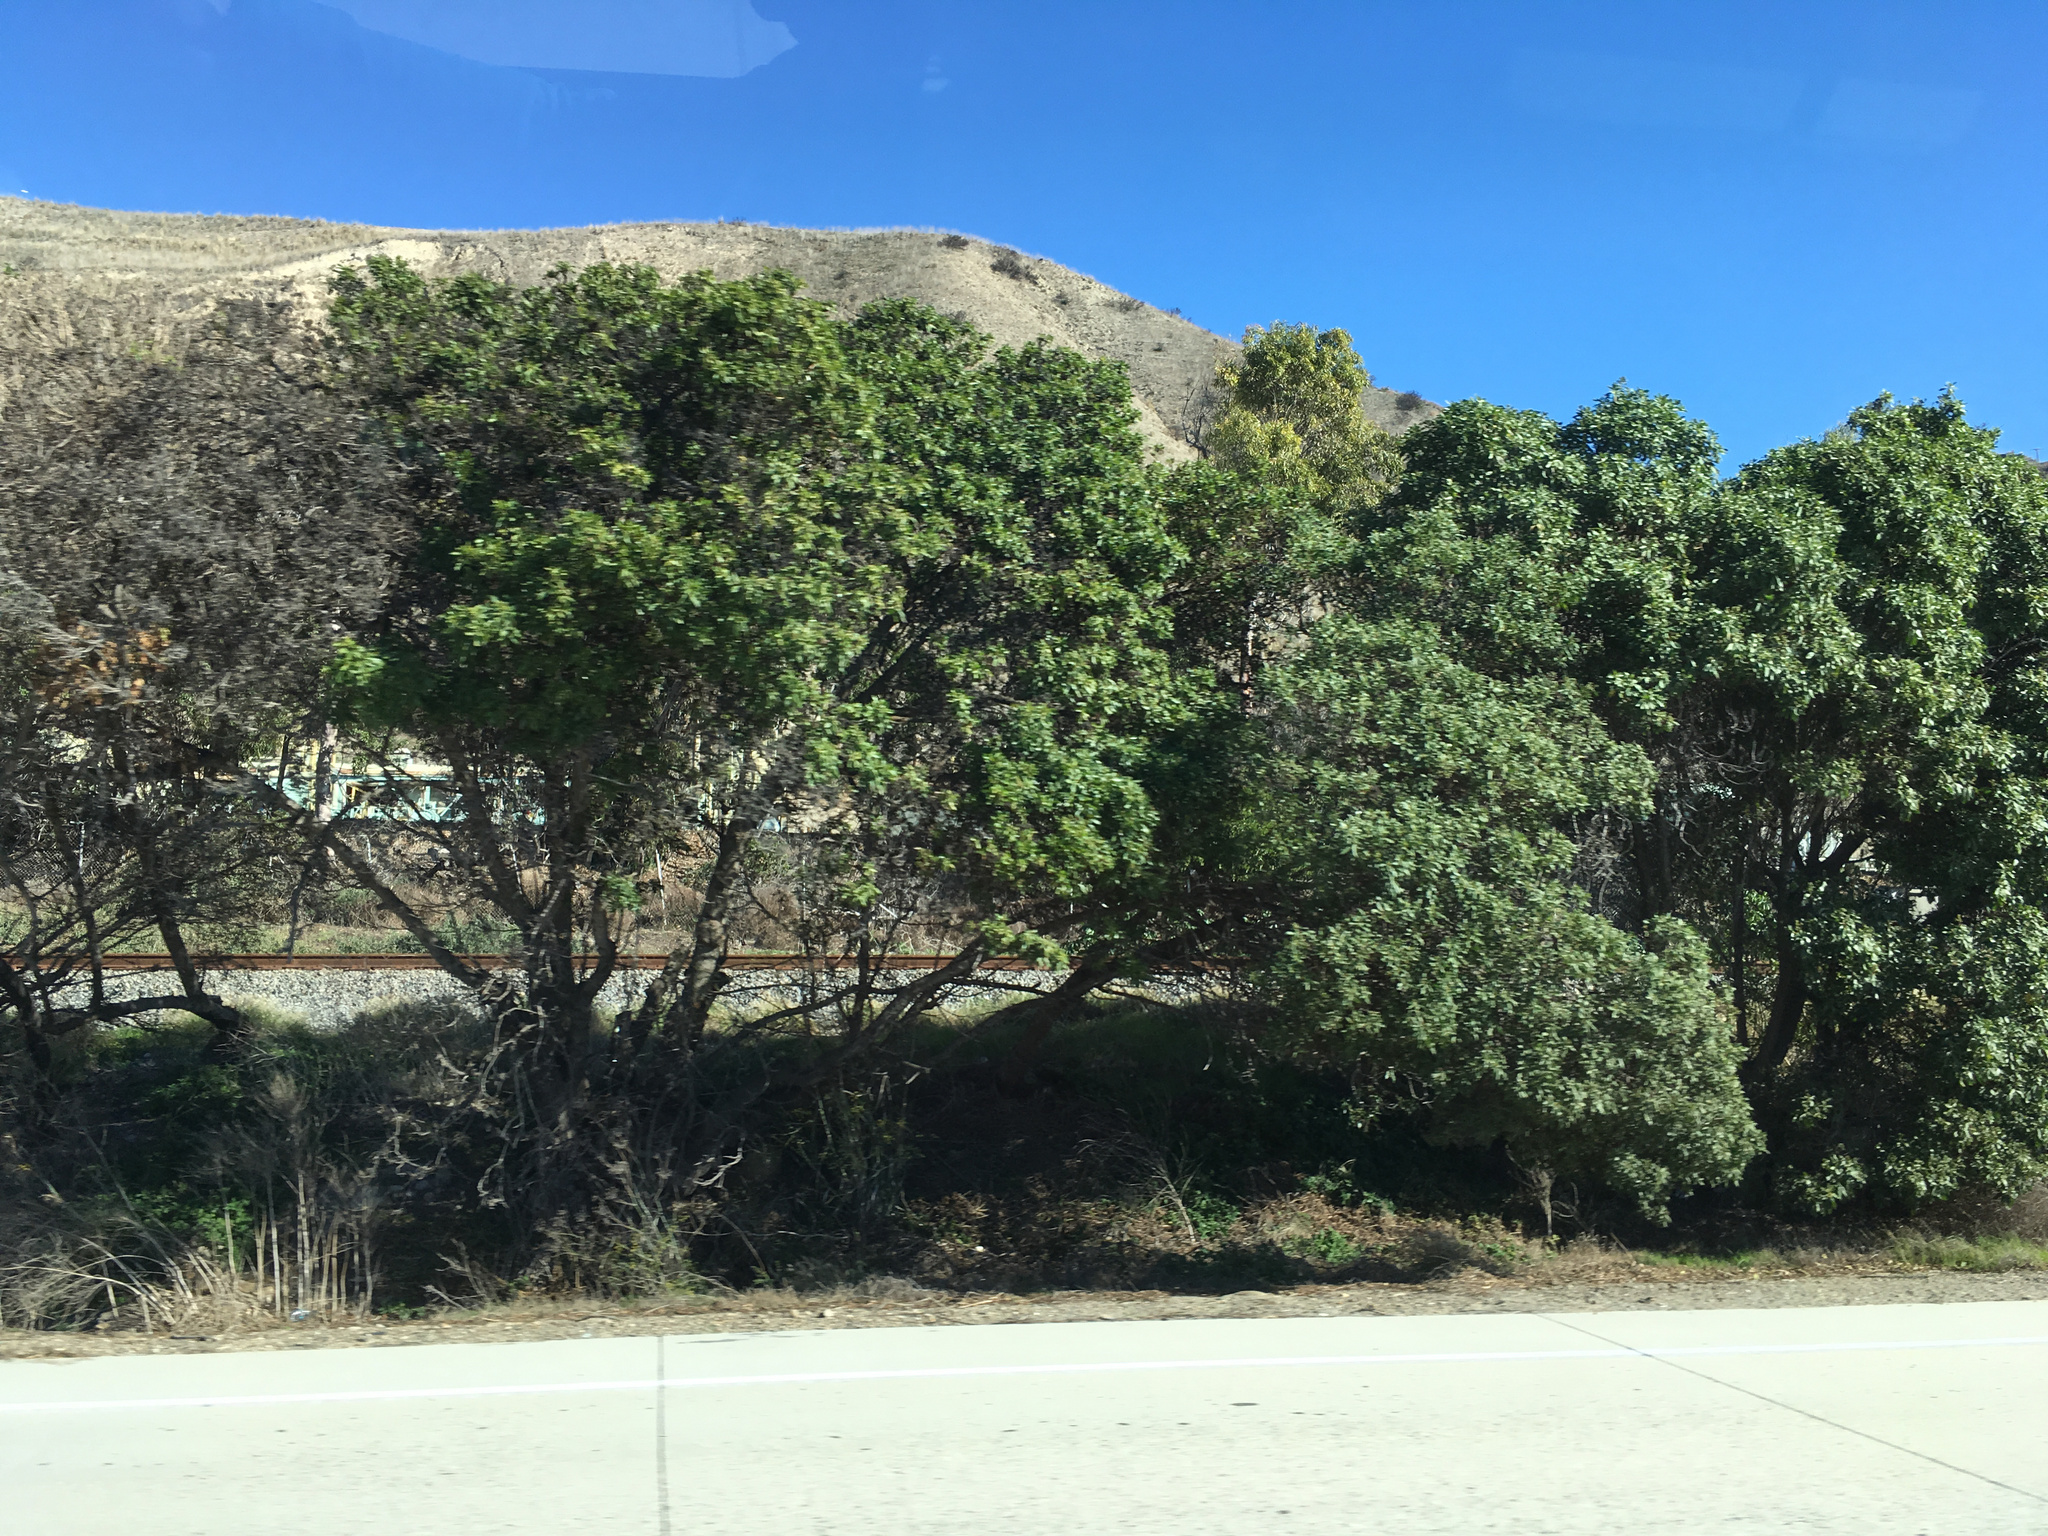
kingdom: Plantae
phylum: Tracheophyta
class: Magnoliopsida
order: Lamiales
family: Scrophulariaceae
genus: Myoporum
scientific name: Myoporum laetum
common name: Ngaio tree
